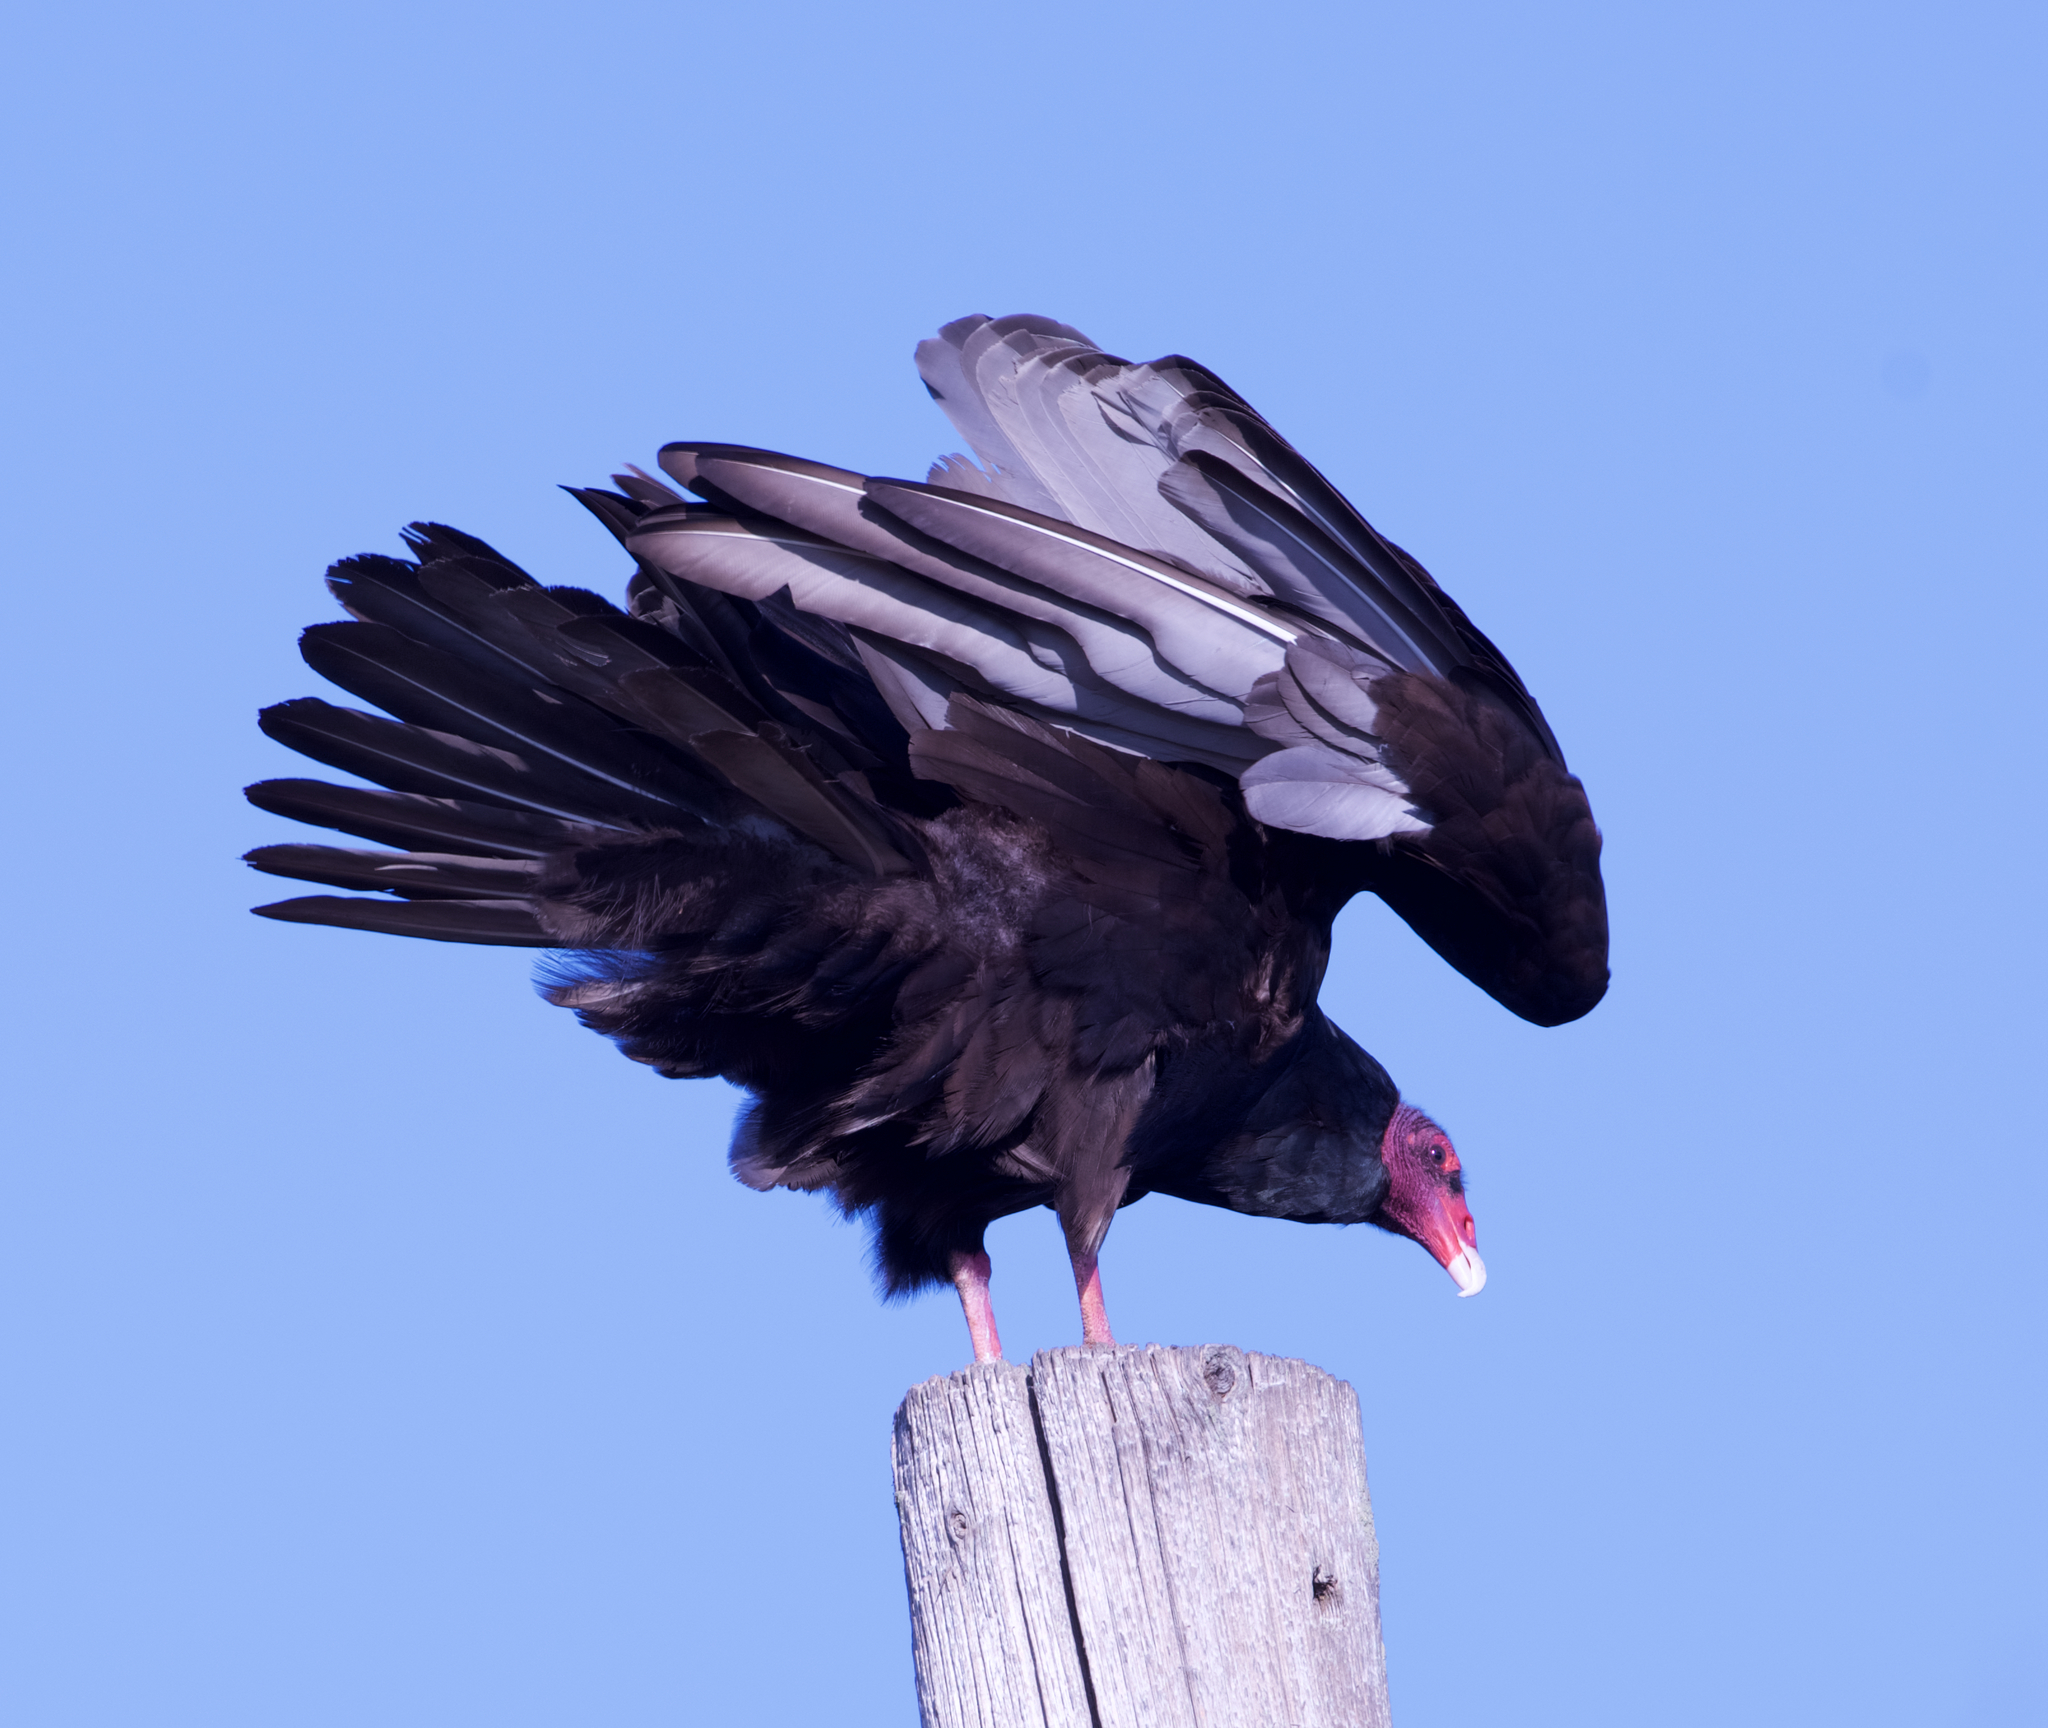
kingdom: Animalia
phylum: Chordata
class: Aves
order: Accipitriformes
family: Cathartidae
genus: Cathartes
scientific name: Cathartes aura
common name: Turkey vulture
